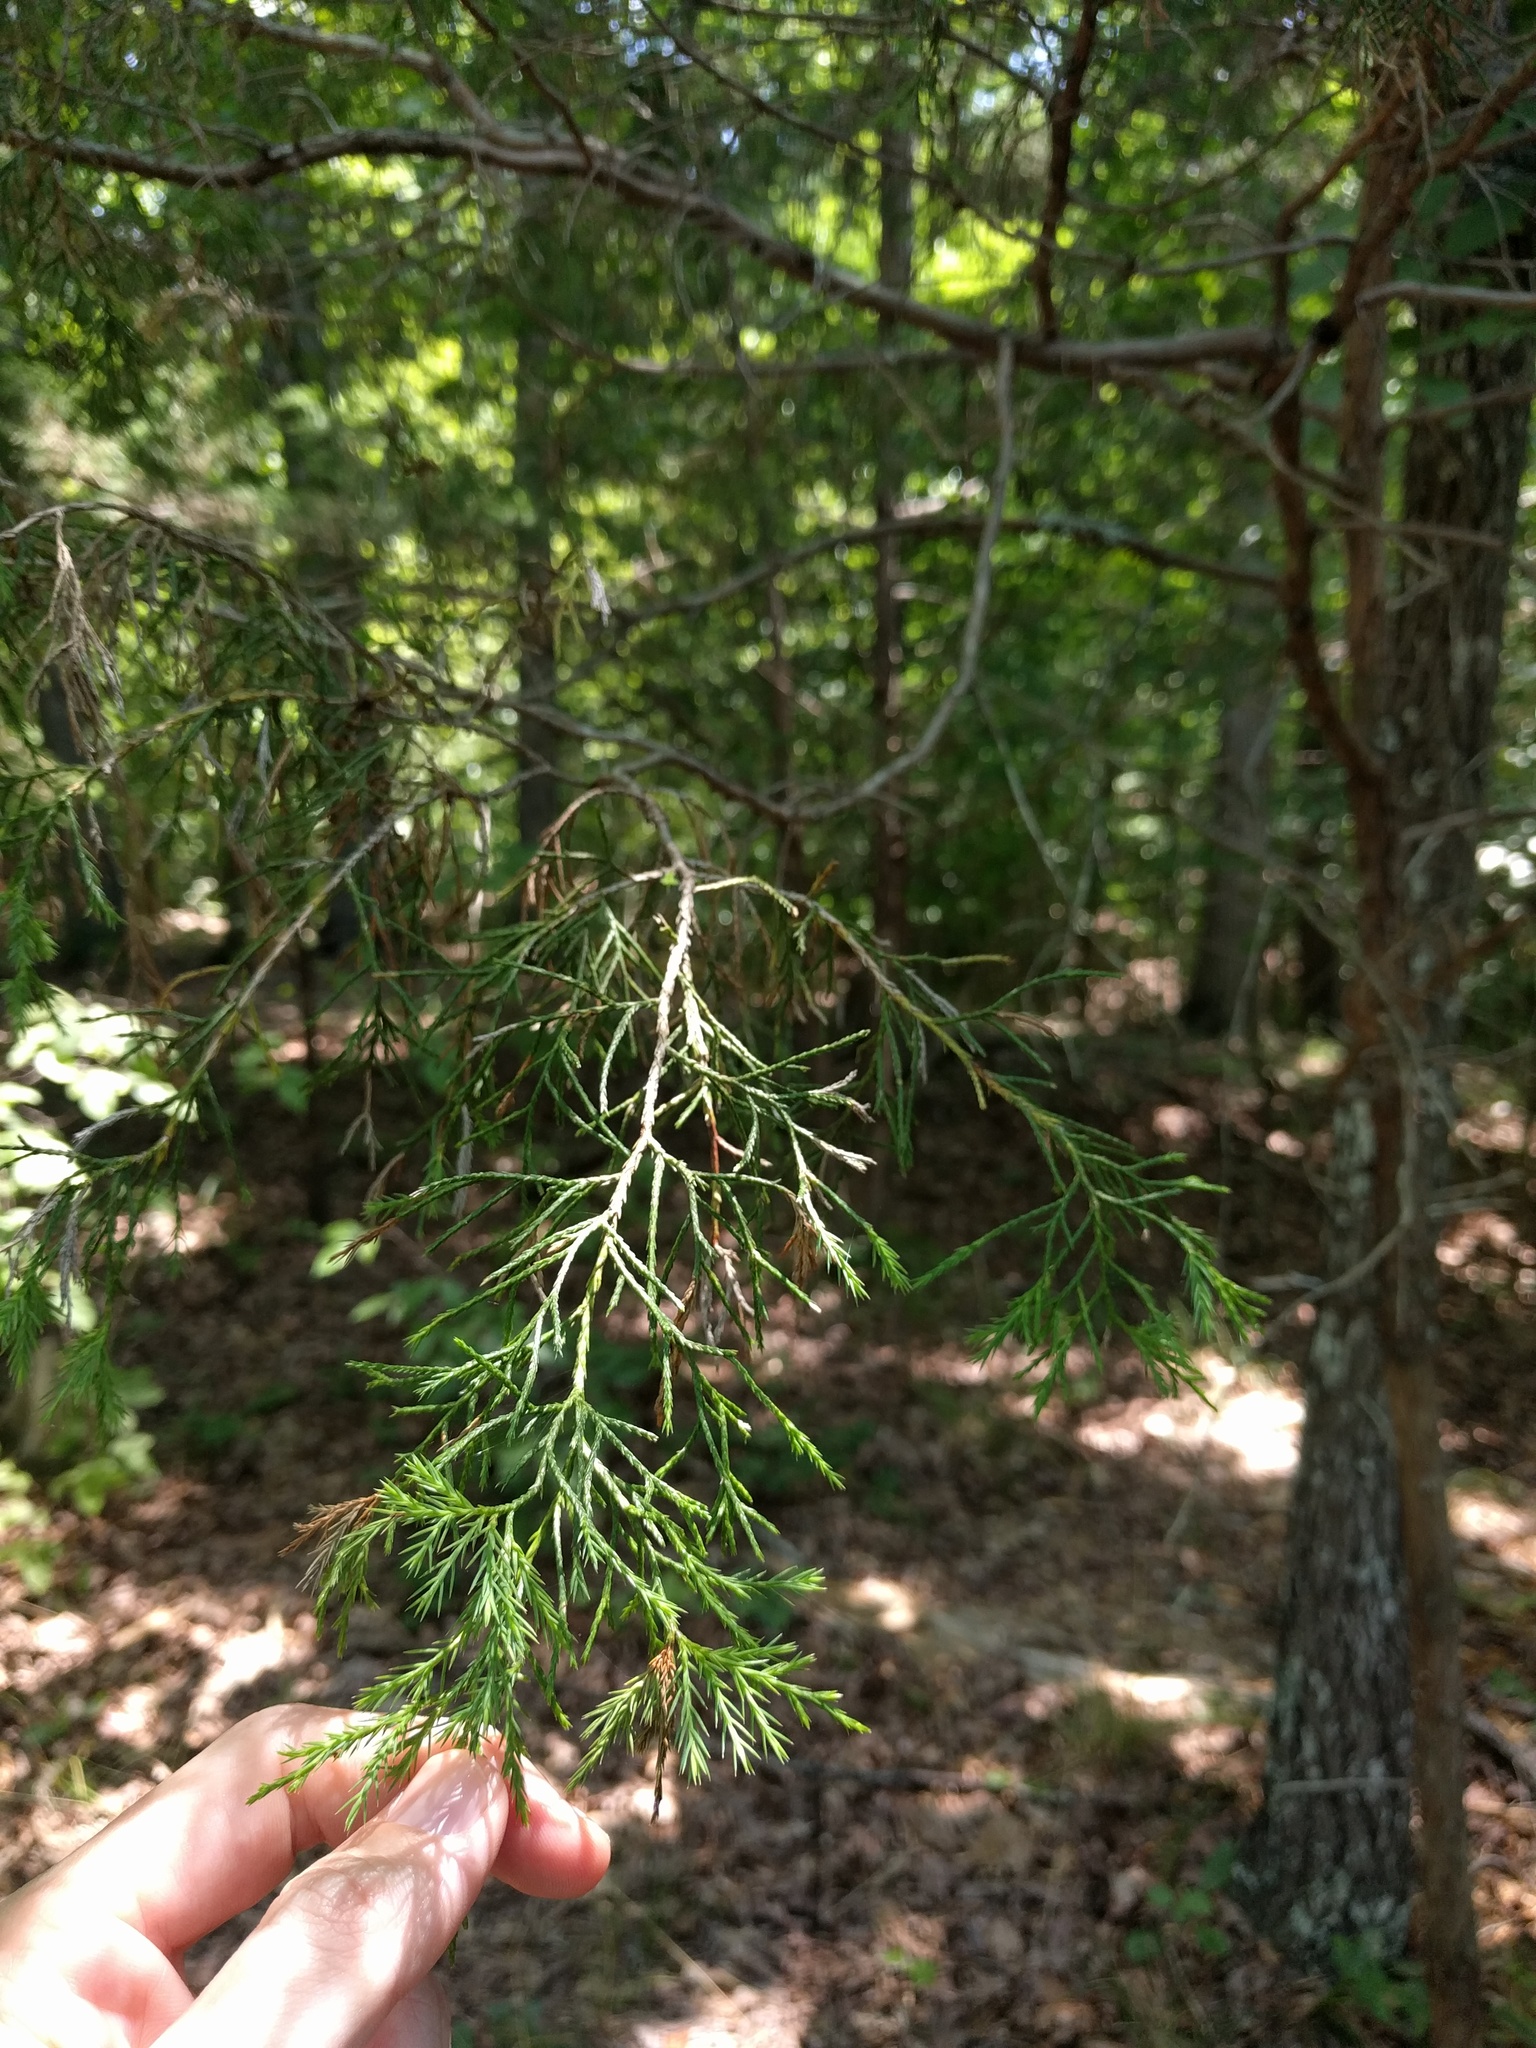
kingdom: Plantae
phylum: Tracheophyta
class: Pinopsida
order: Pinales
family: Cupressaceae
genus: Juniperus
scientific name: Juniperus virginiana
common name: Red juniper
